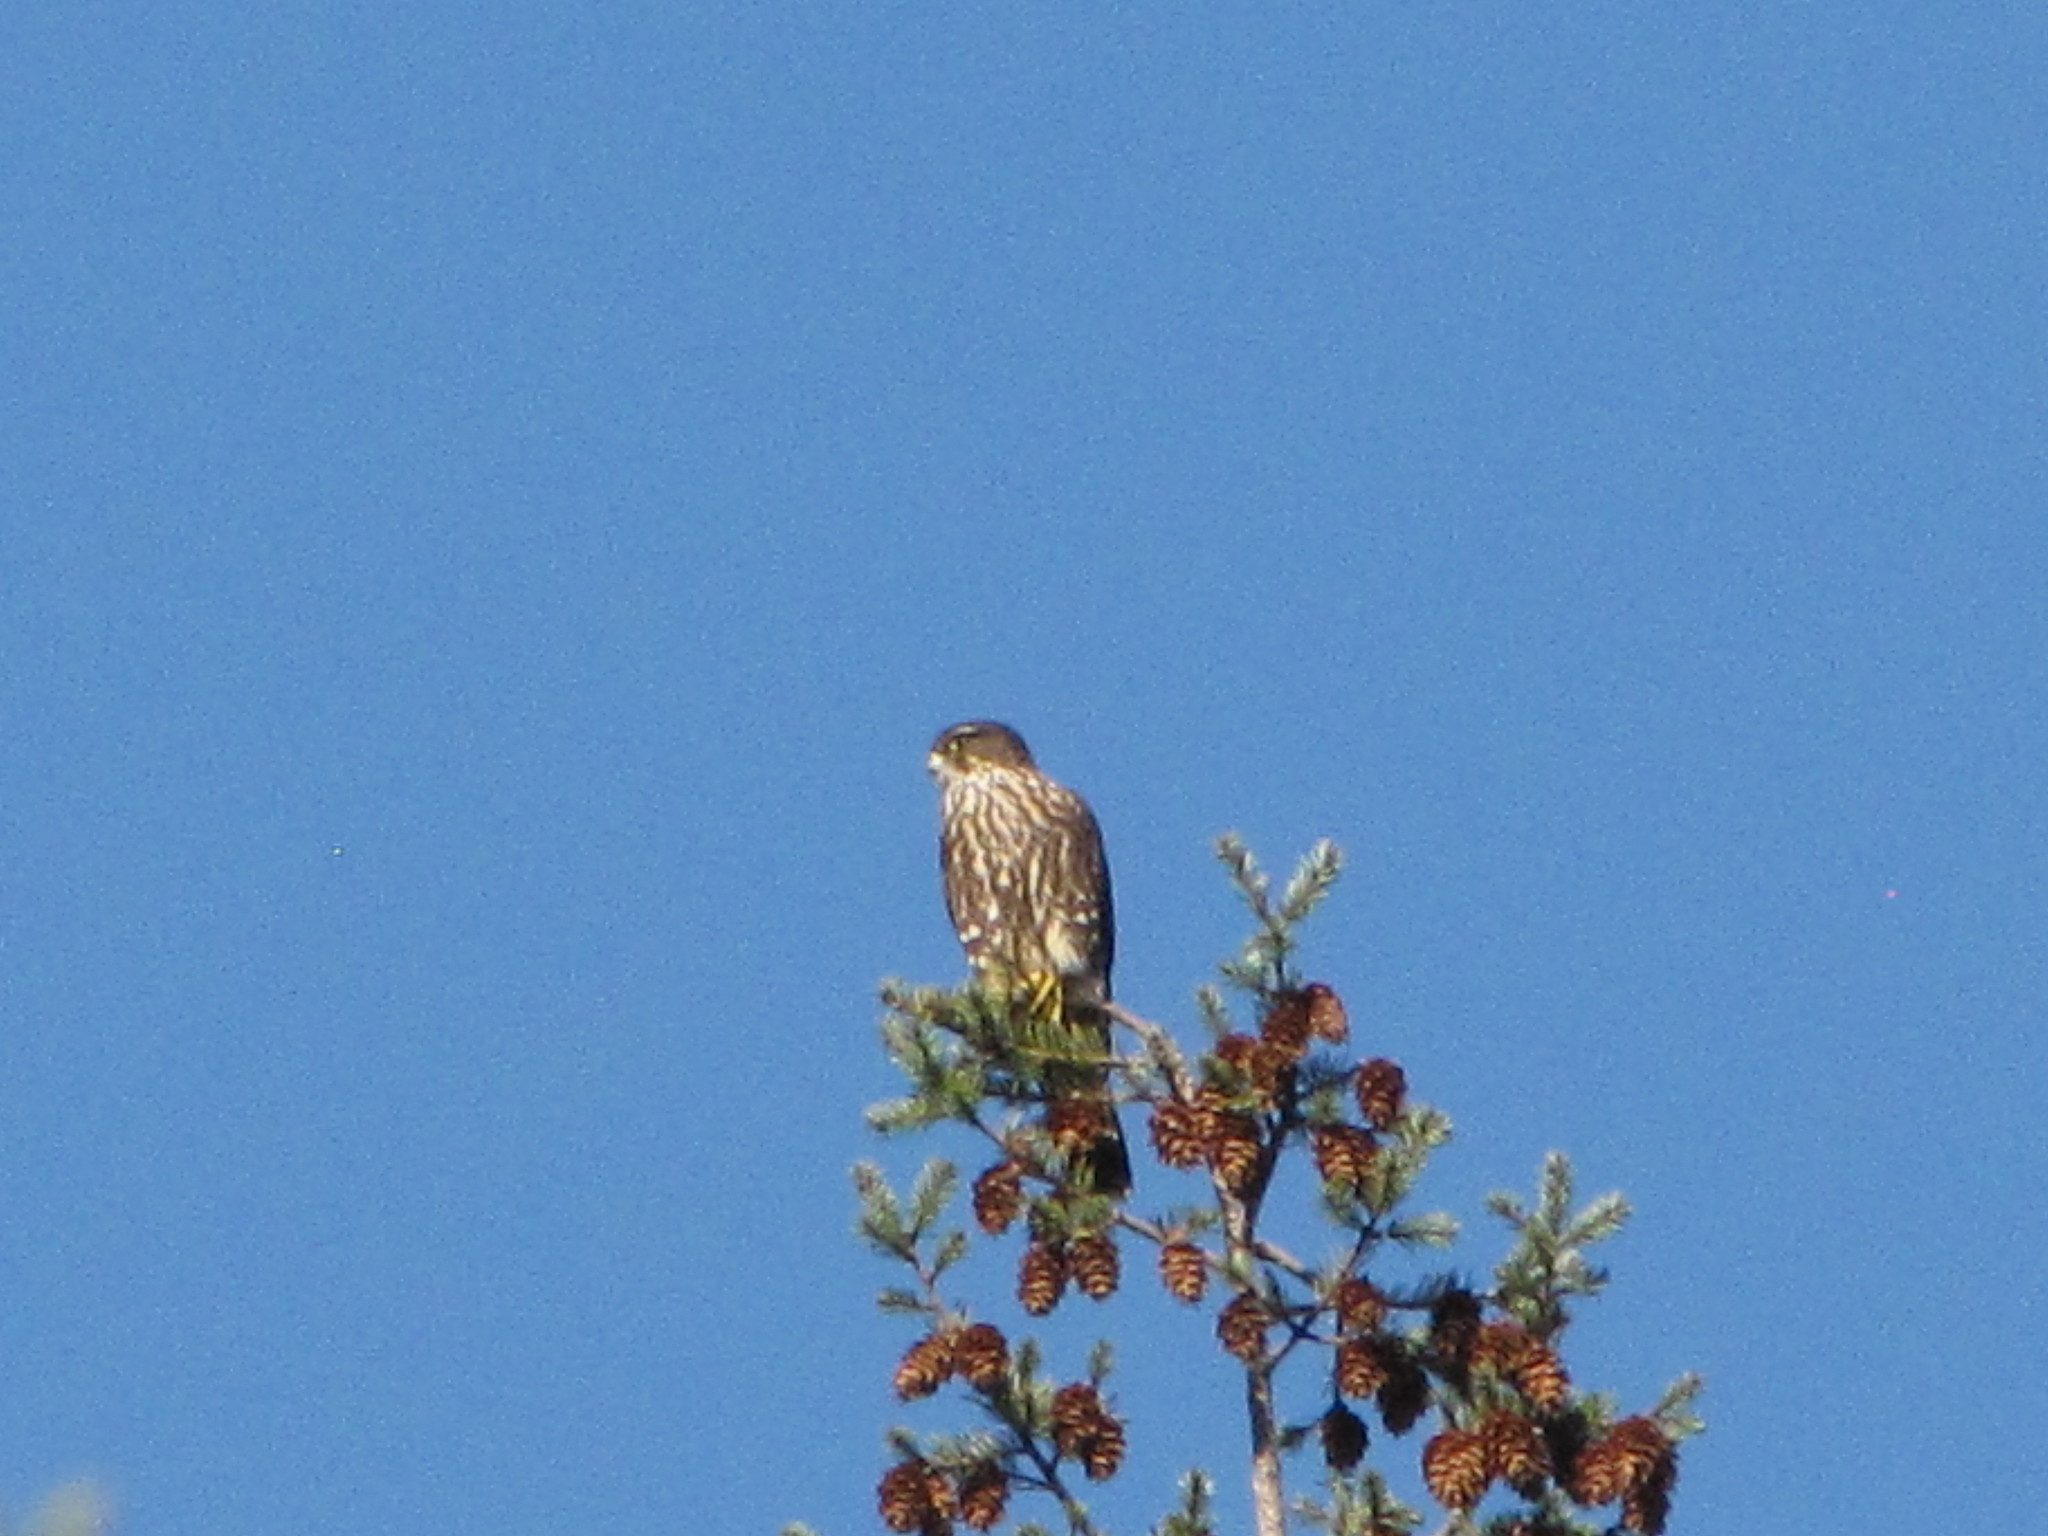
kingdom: Animalia
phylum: Chordata
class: Aves
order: Falconiformes
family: Falconidae
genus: Falco
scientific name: Falco columbarius
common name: Merlin
